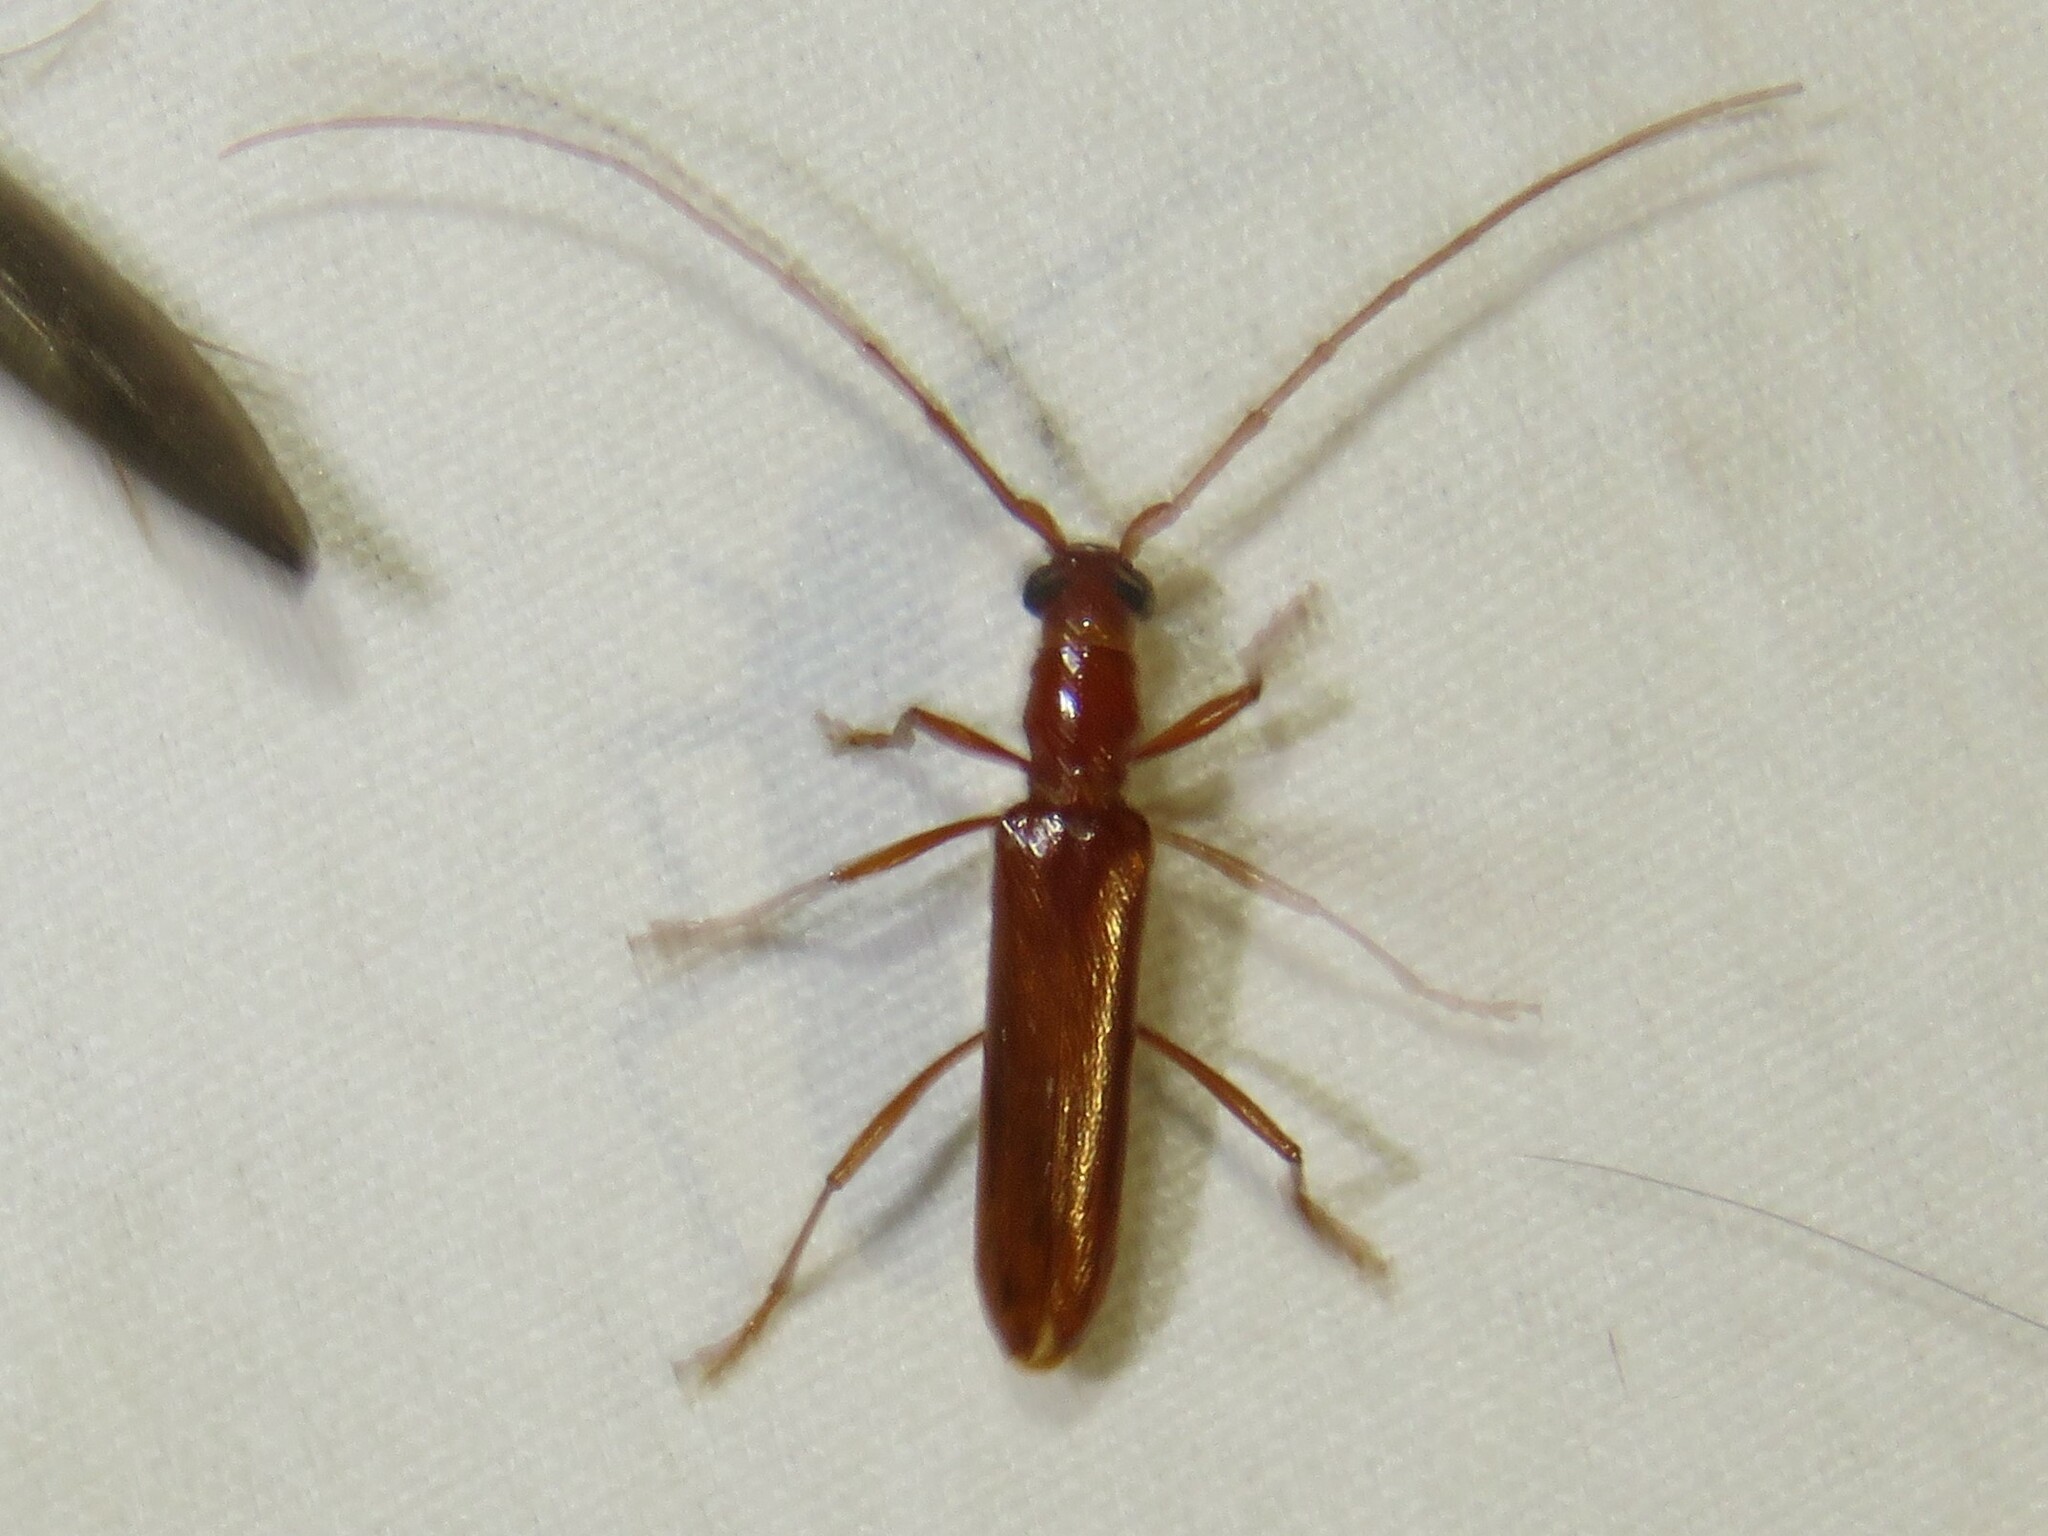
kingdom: Animalia
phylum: Arthropoda
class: Insecta
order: Coleoptera
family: Cerambycidae
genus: Psyrassa
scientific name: Psyrassa unicolor
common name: Branch pruner
